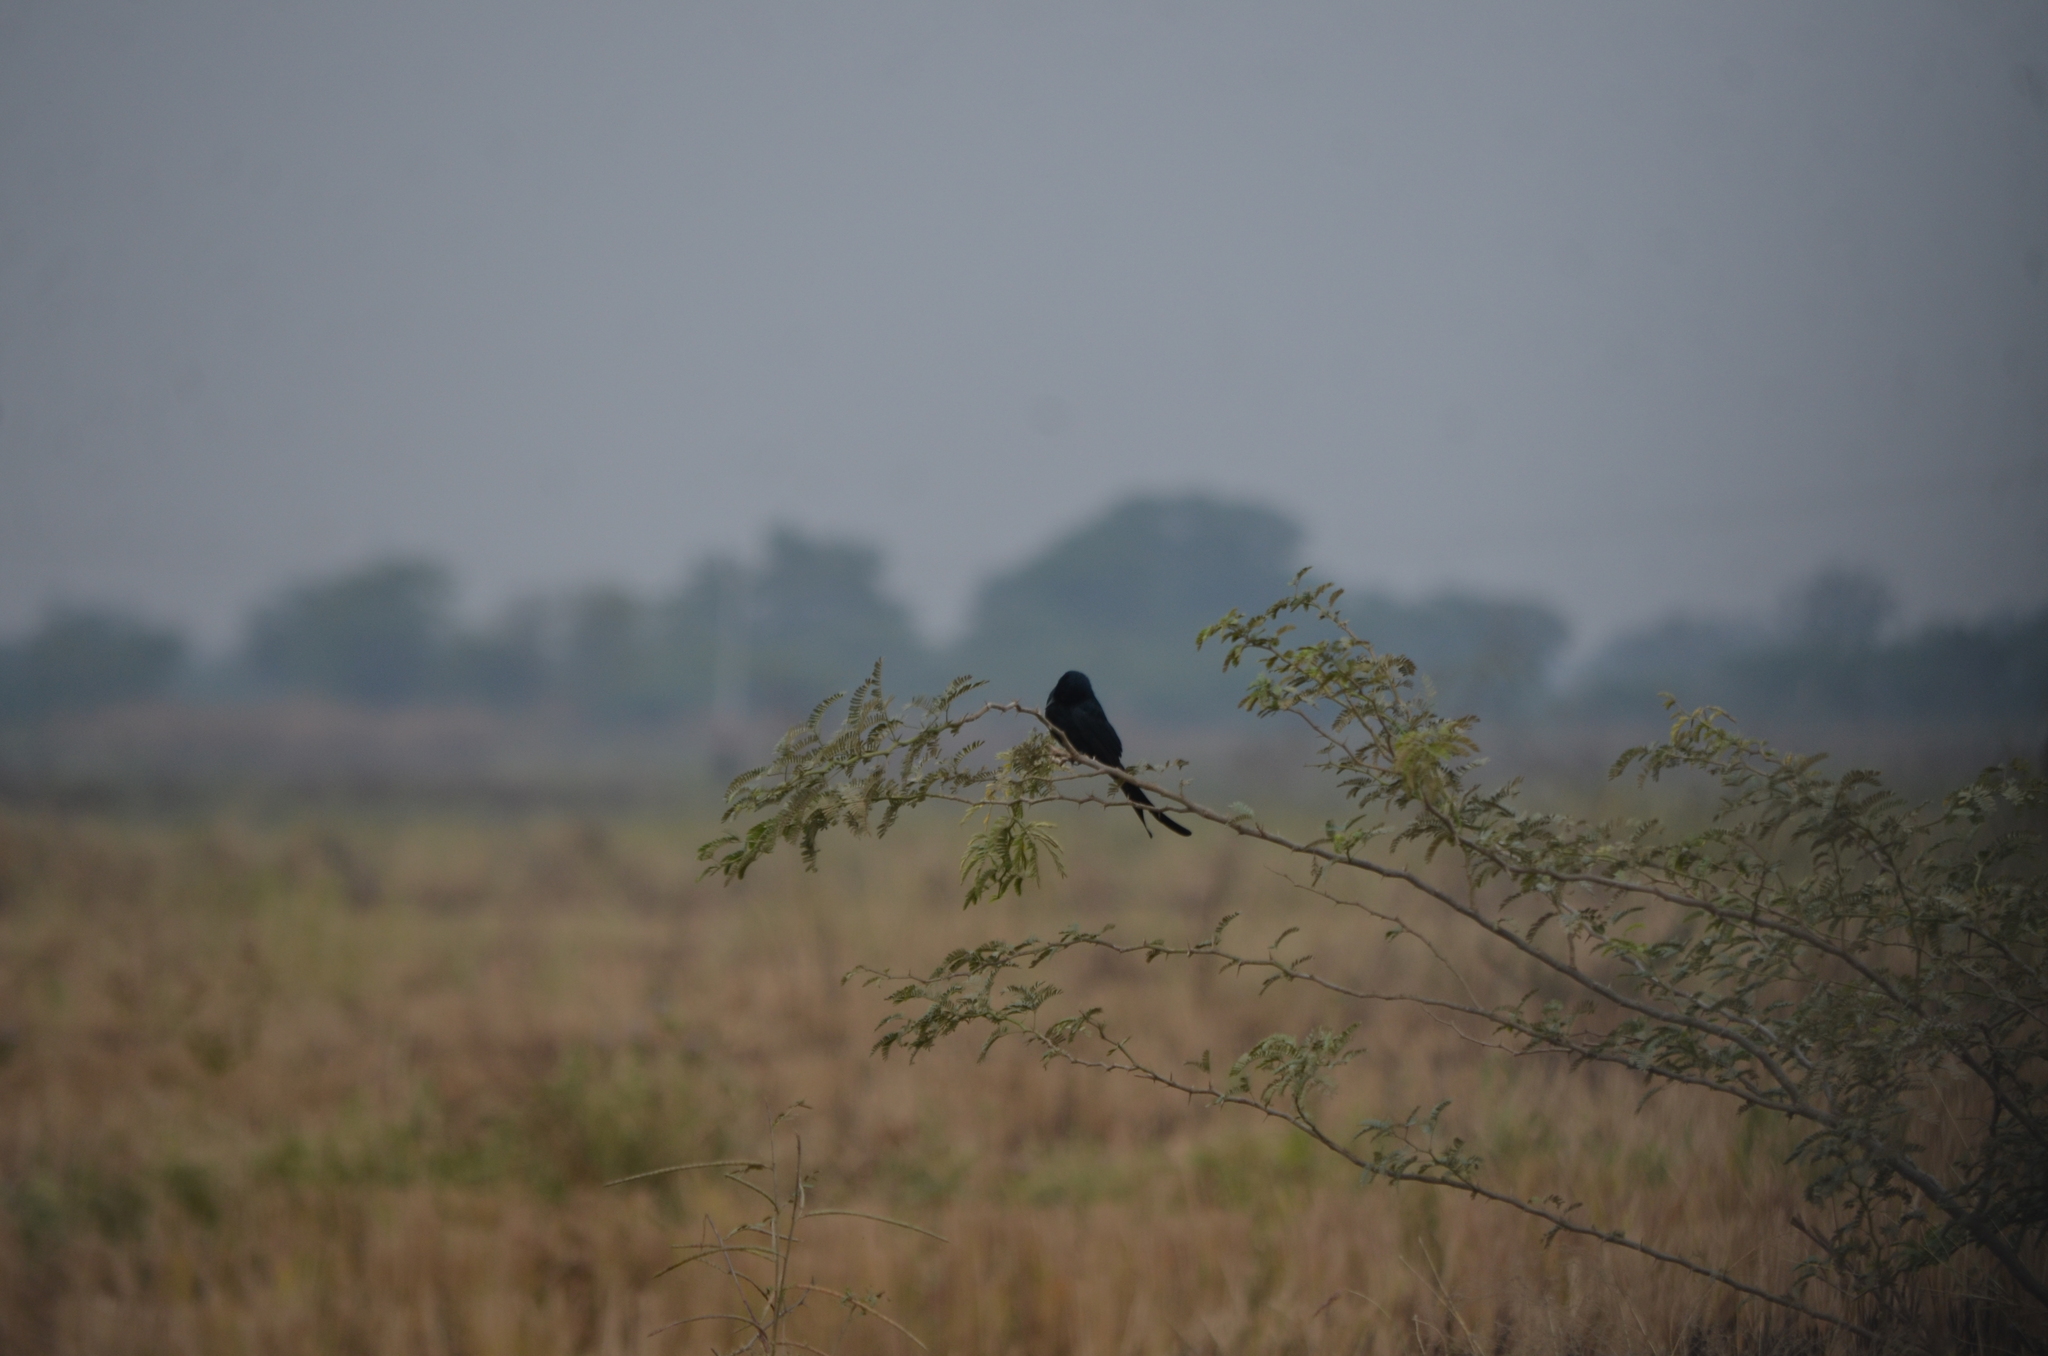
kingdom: Animalia
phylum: Chordata
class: Aves
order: Passeriformes
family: Dicruridae
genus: Dicrurus
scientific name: Dicrurus macrocercus
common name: Black drongo
